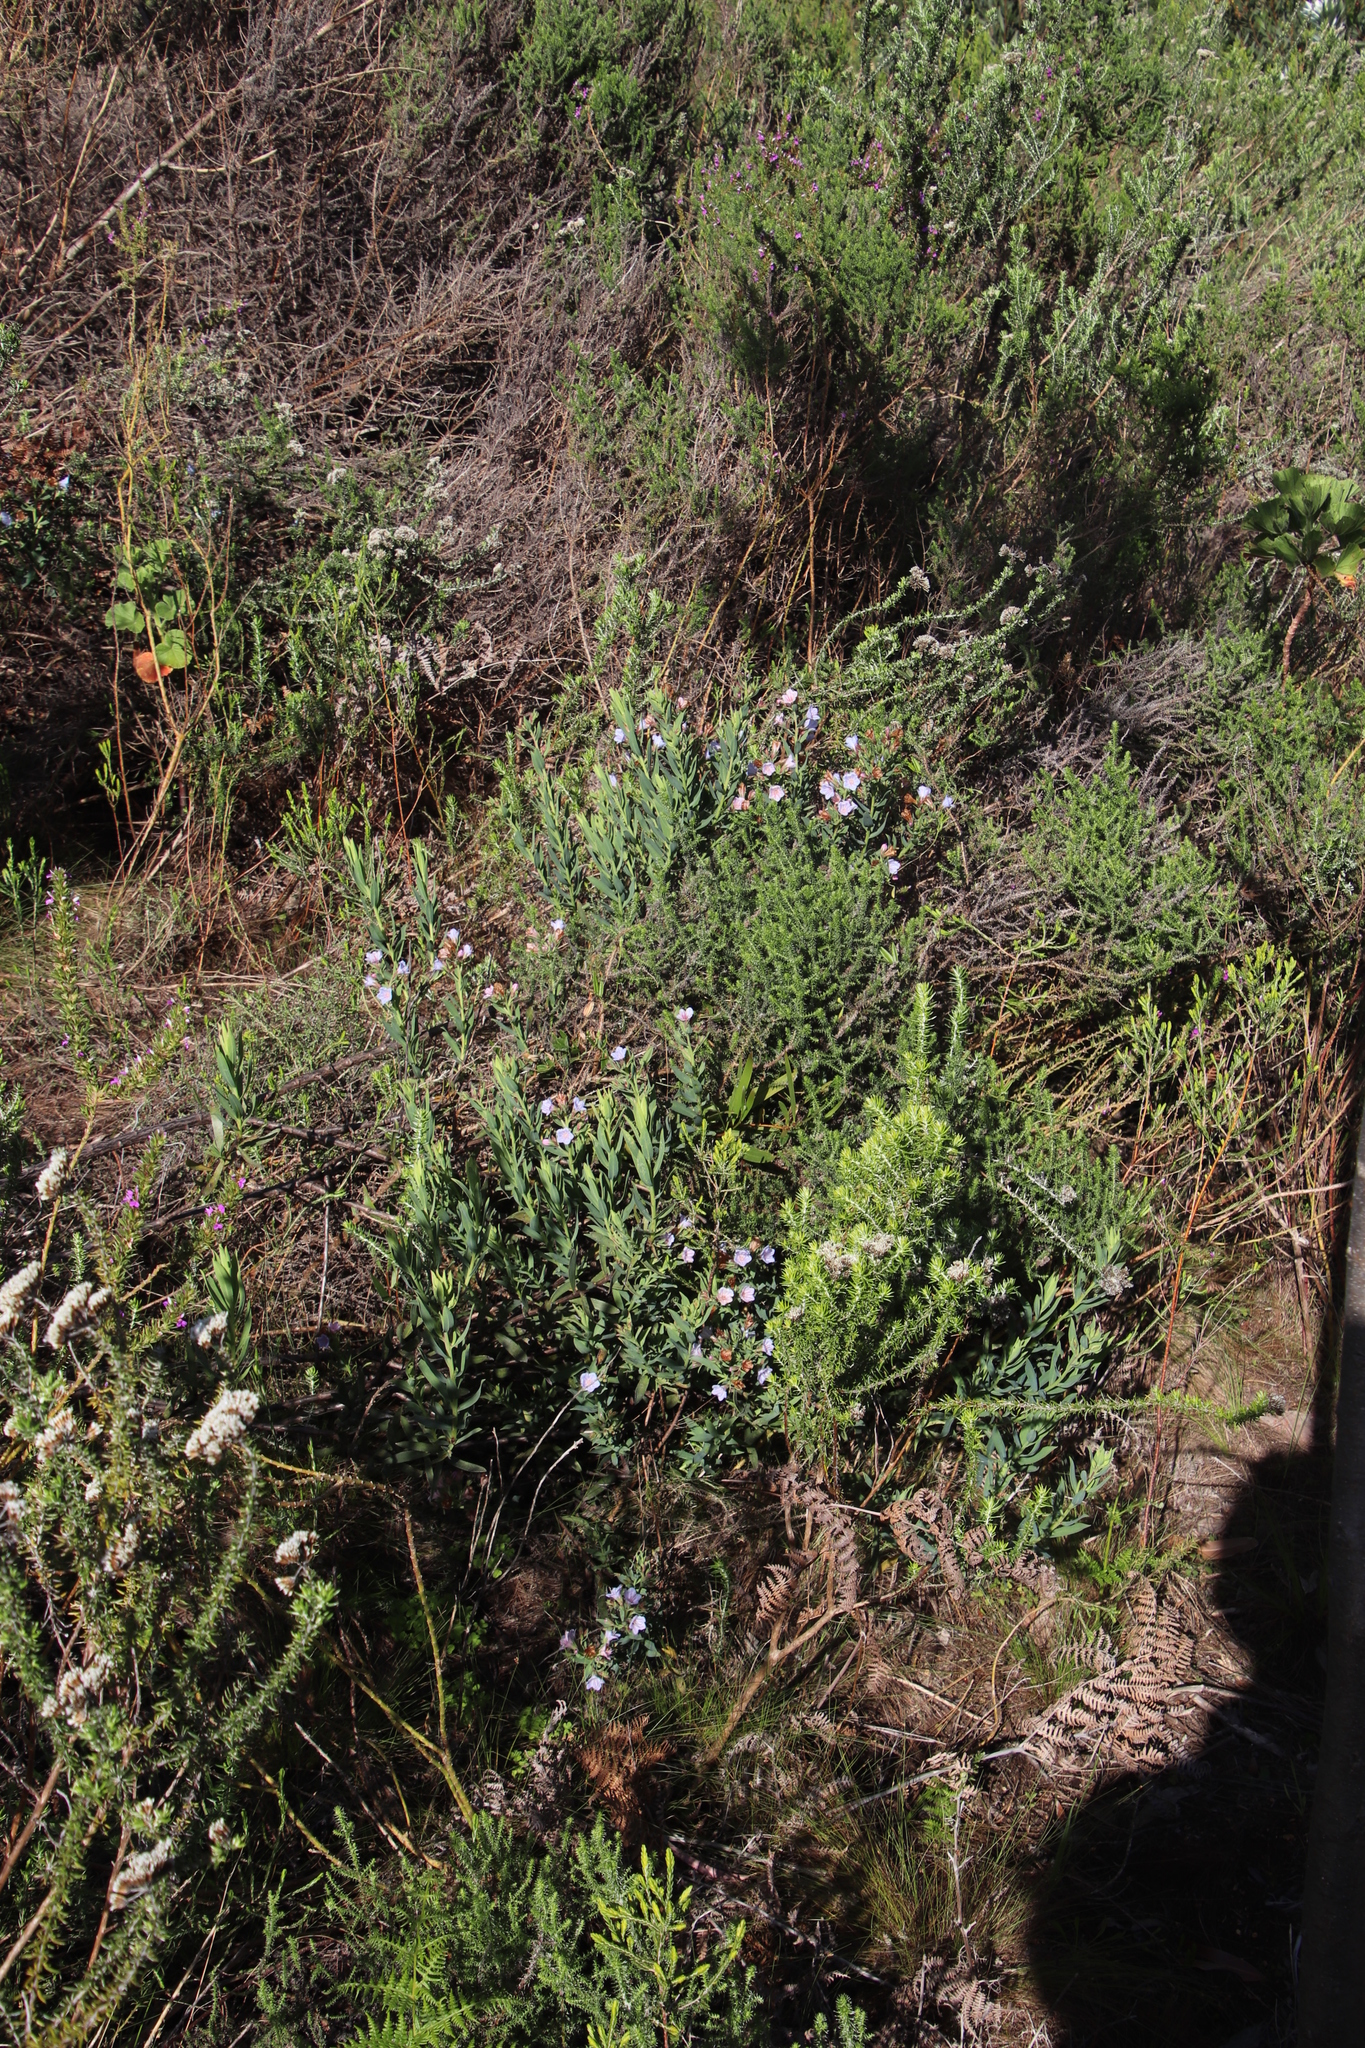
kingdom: Plantae
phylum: Tracheophyta
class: Magnoliopsida
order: Boraginales
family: Boraginaceae
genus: Lobostemon
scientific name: Lobostemon glaucophyllus
